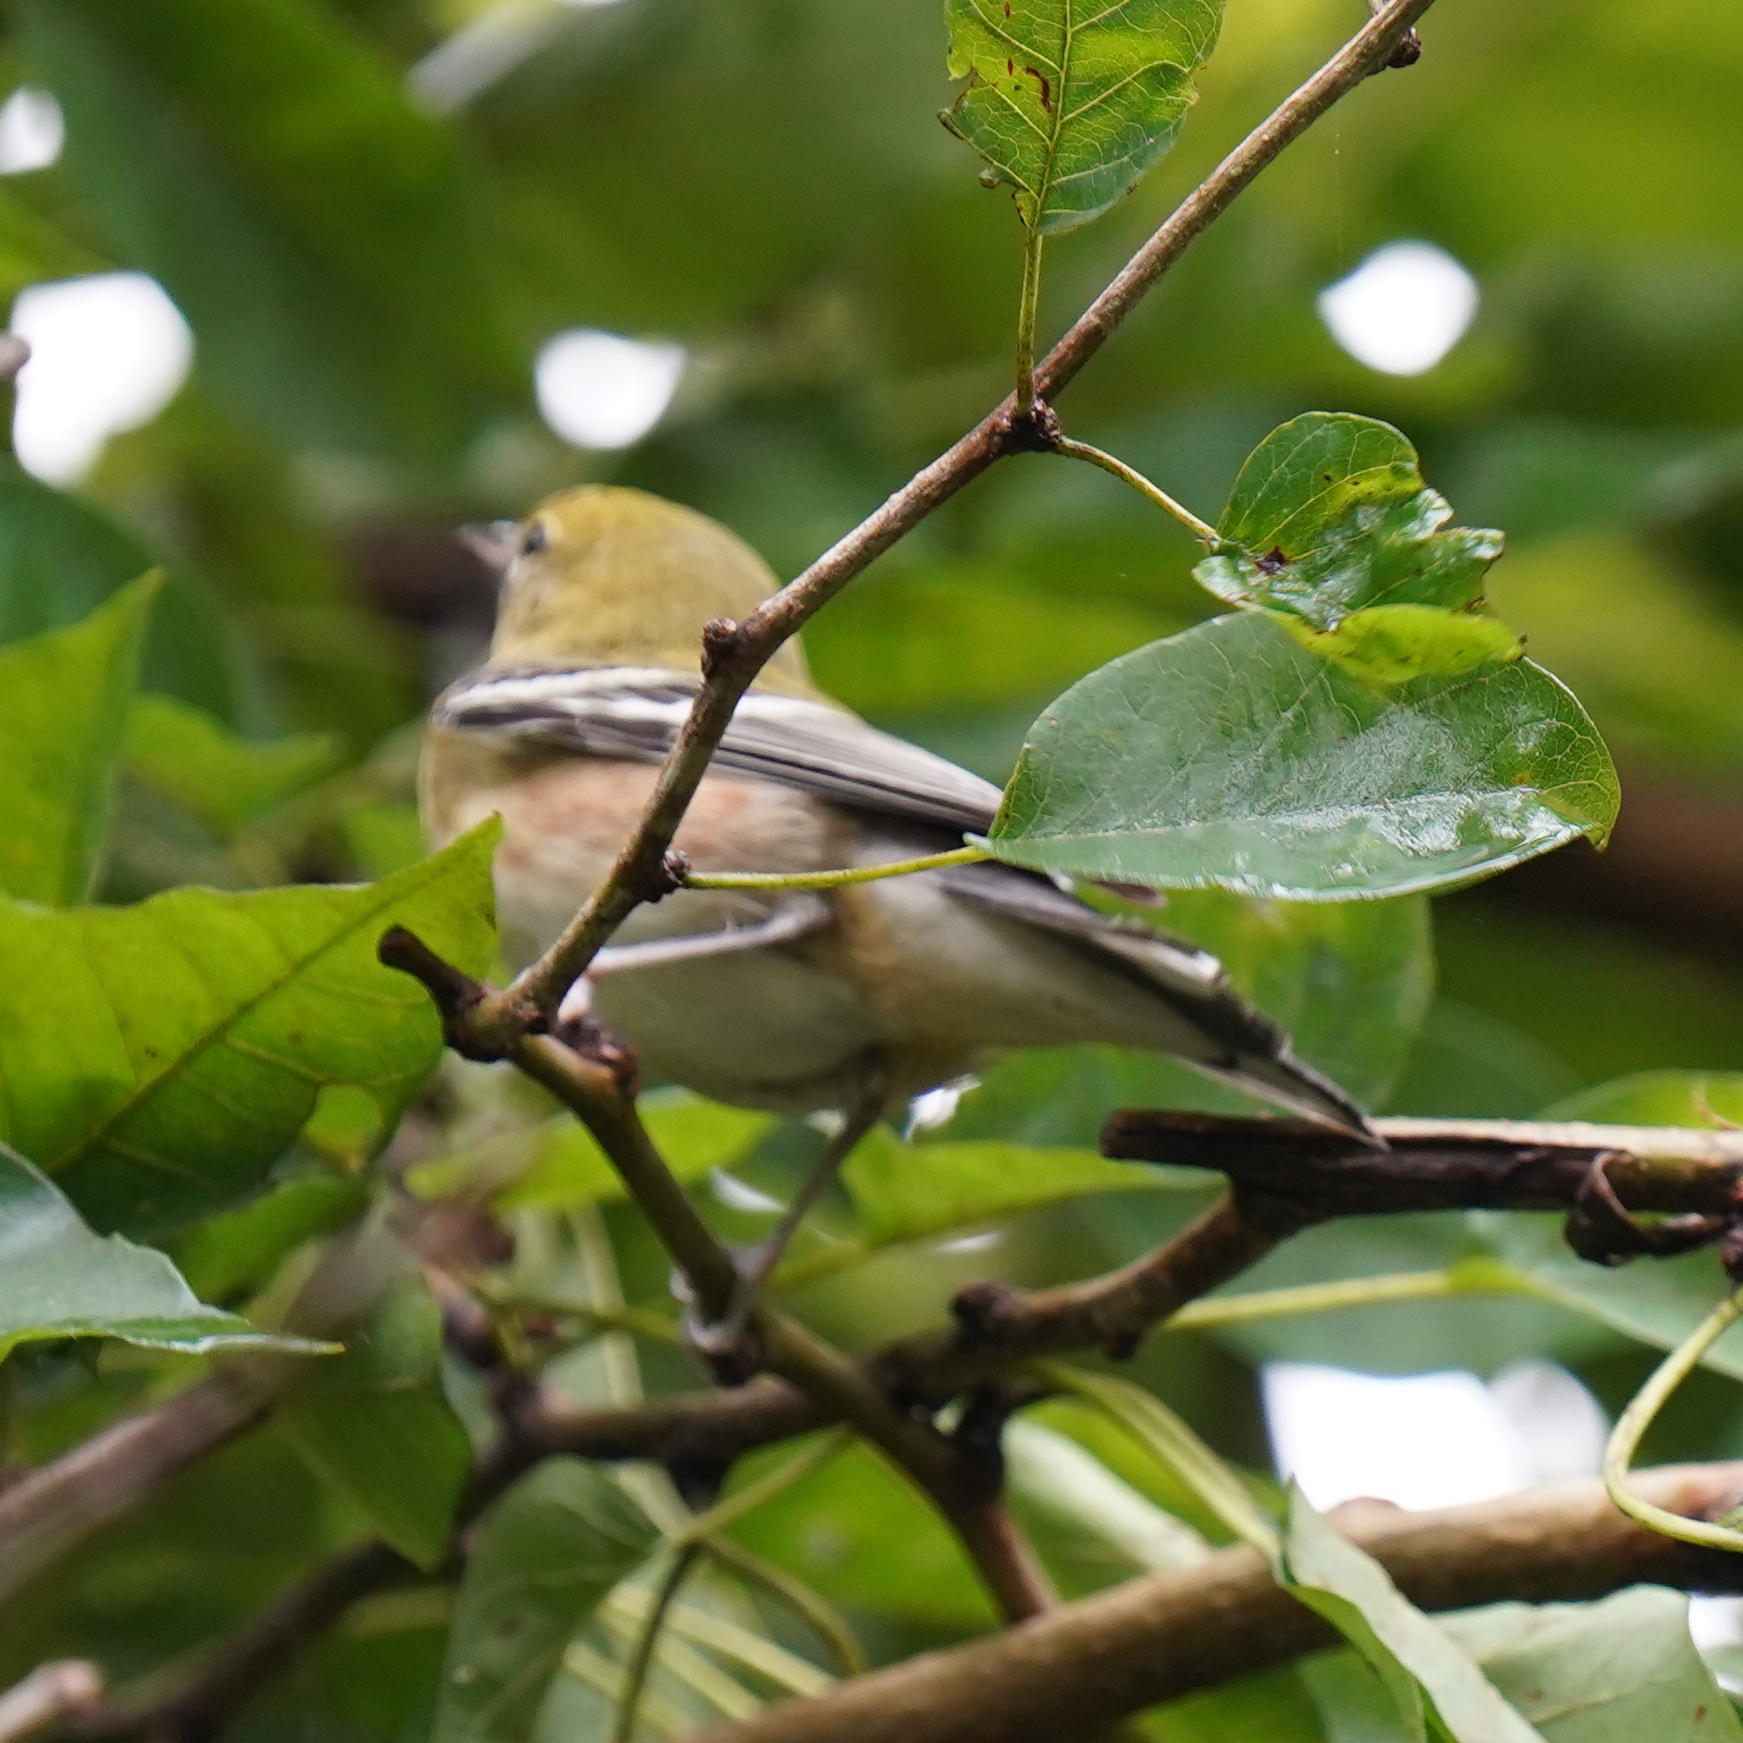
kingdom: Animalia
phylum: Chordata
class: Aves
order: Passeriformes
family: Parulidae
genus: Setophaga
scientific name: Setophaga castanea
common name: Bay-breasted warbler
